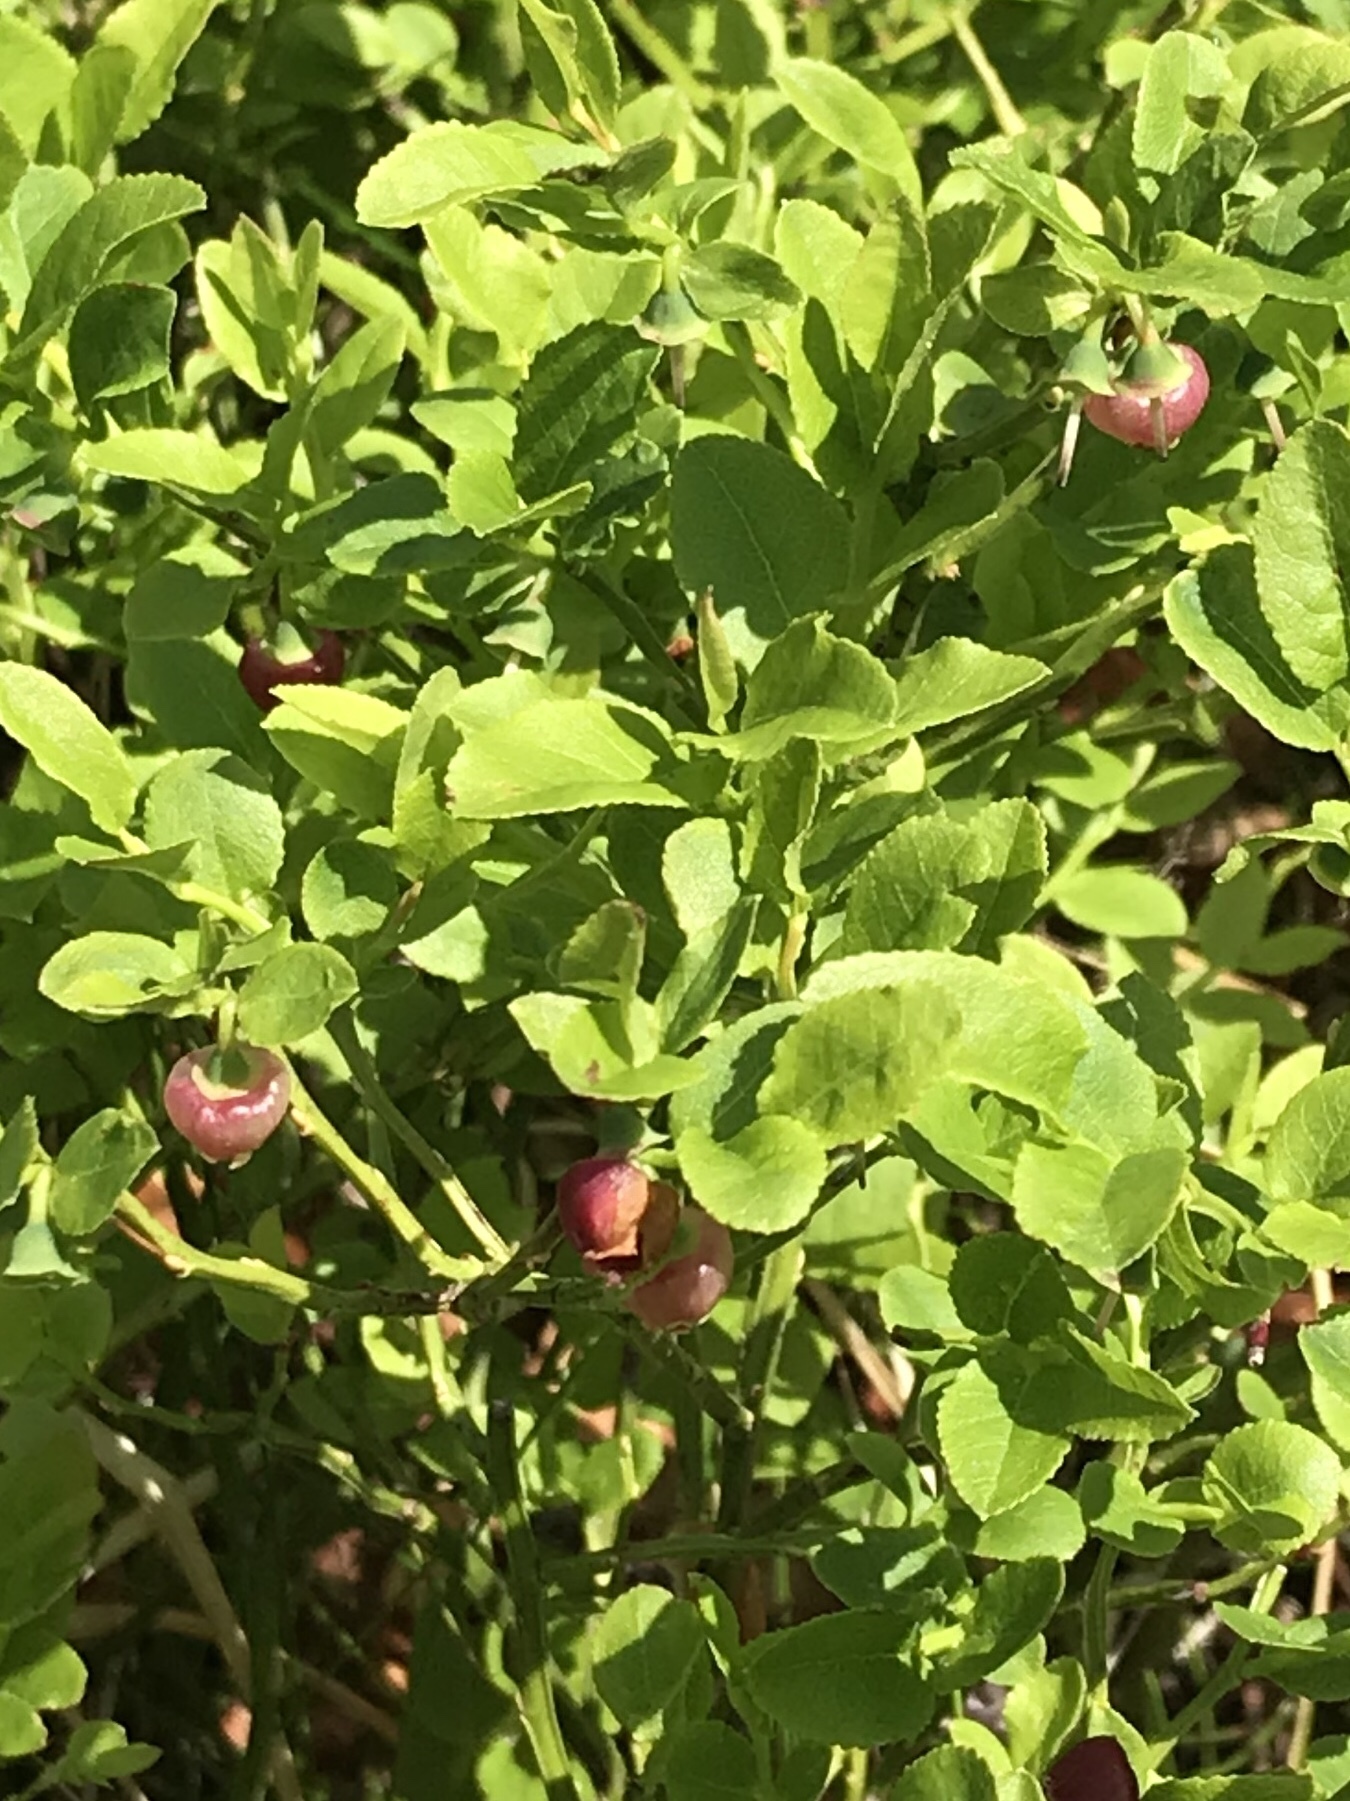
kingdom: Plantae
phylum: Tracheophyta
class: Magnoliopsida
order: Ericales
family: Ericaceae
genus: Vaccinium
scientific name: Vaccinium myrtillus
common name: Bilberry
